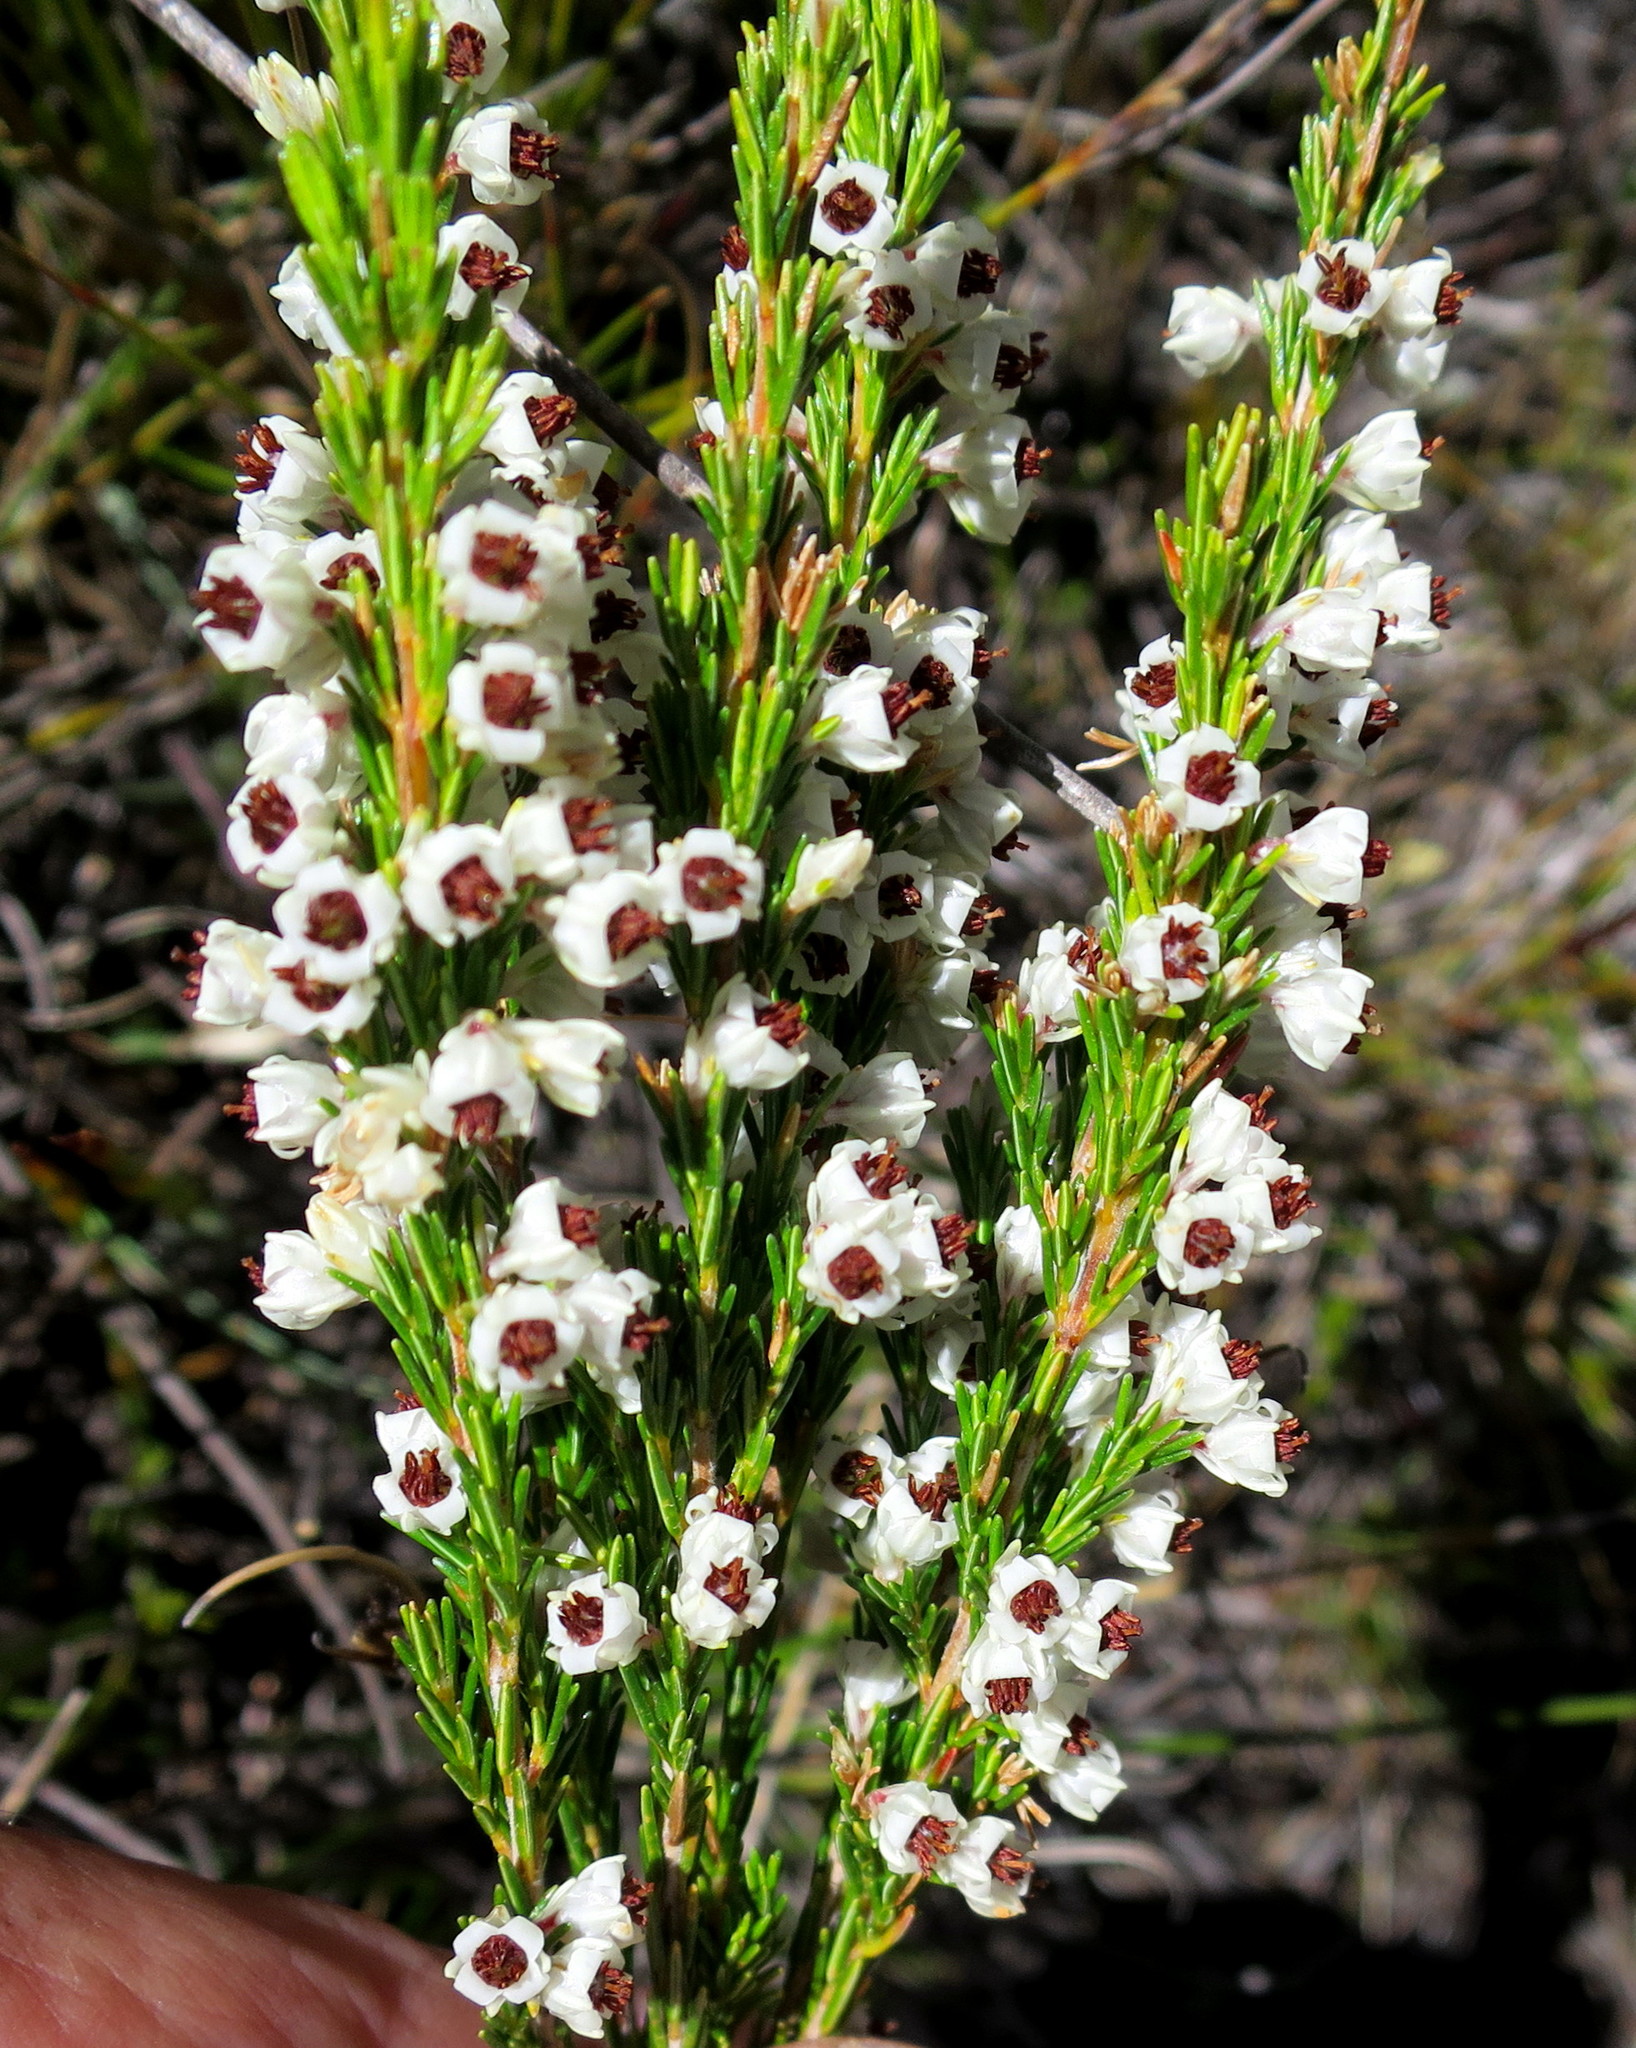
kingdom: Plantae
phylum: Tracheophyta
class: Magnoliopsida
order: Ericales
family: Ericaceae
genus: Erica
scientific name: Erica calycina
